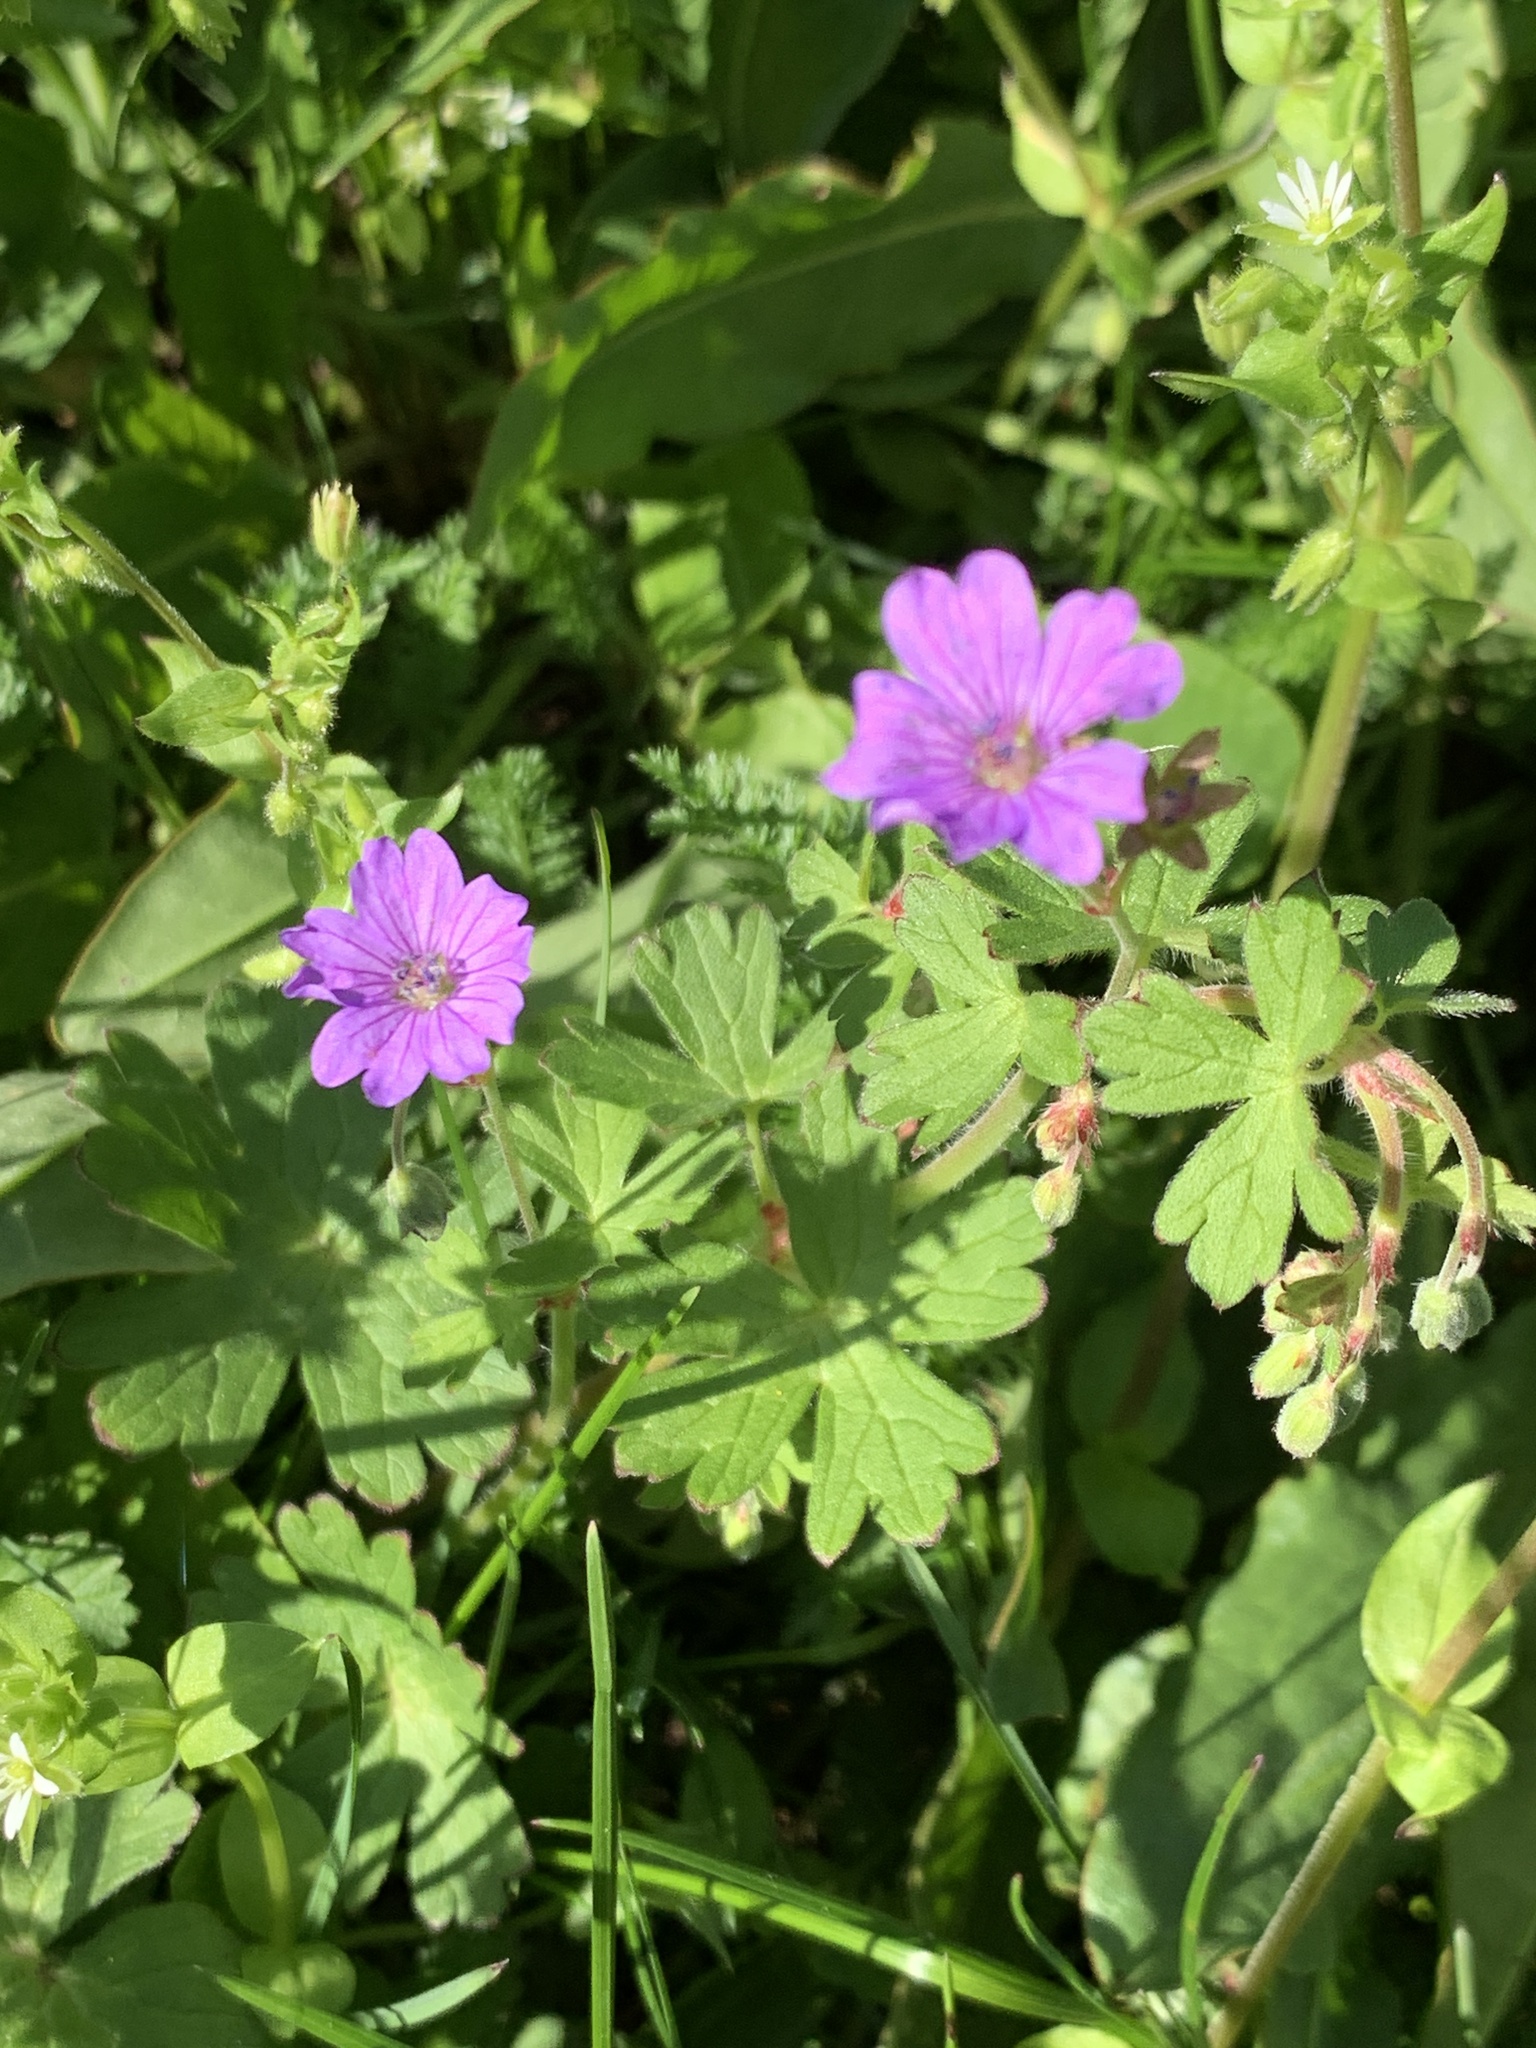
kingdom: Plantae
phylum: Tracheophyta
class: Magnoliopsida
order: Geraniales
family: Geraniaceae
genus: Geranium
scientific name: Geranium pyrenaicum
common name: Hedgerow crane's-bill
